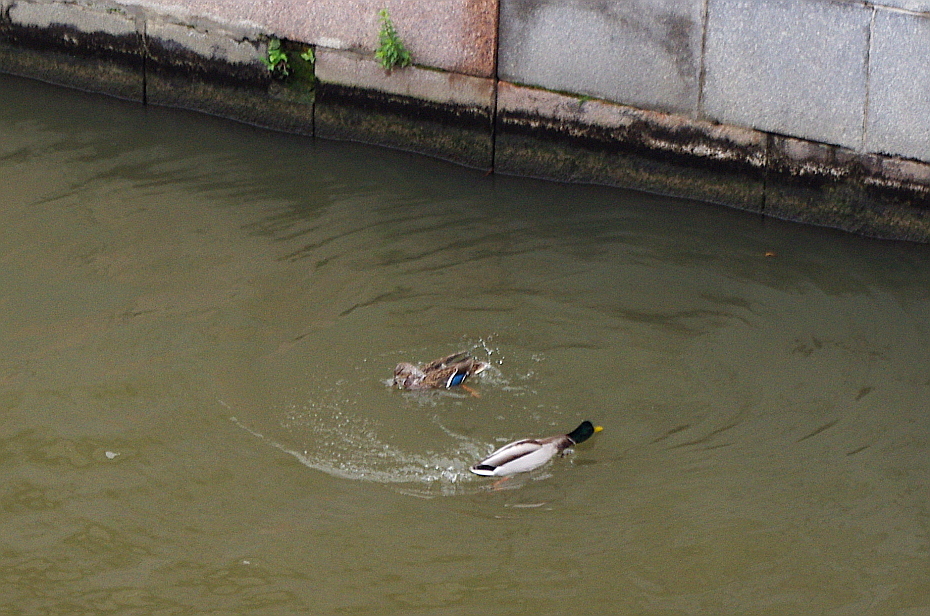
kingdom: Animalia
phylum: Chordata
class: Aves
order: Anseriformes
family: Anatidae
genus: Anas
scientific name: Anas platyrhynchos
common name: Mallard
